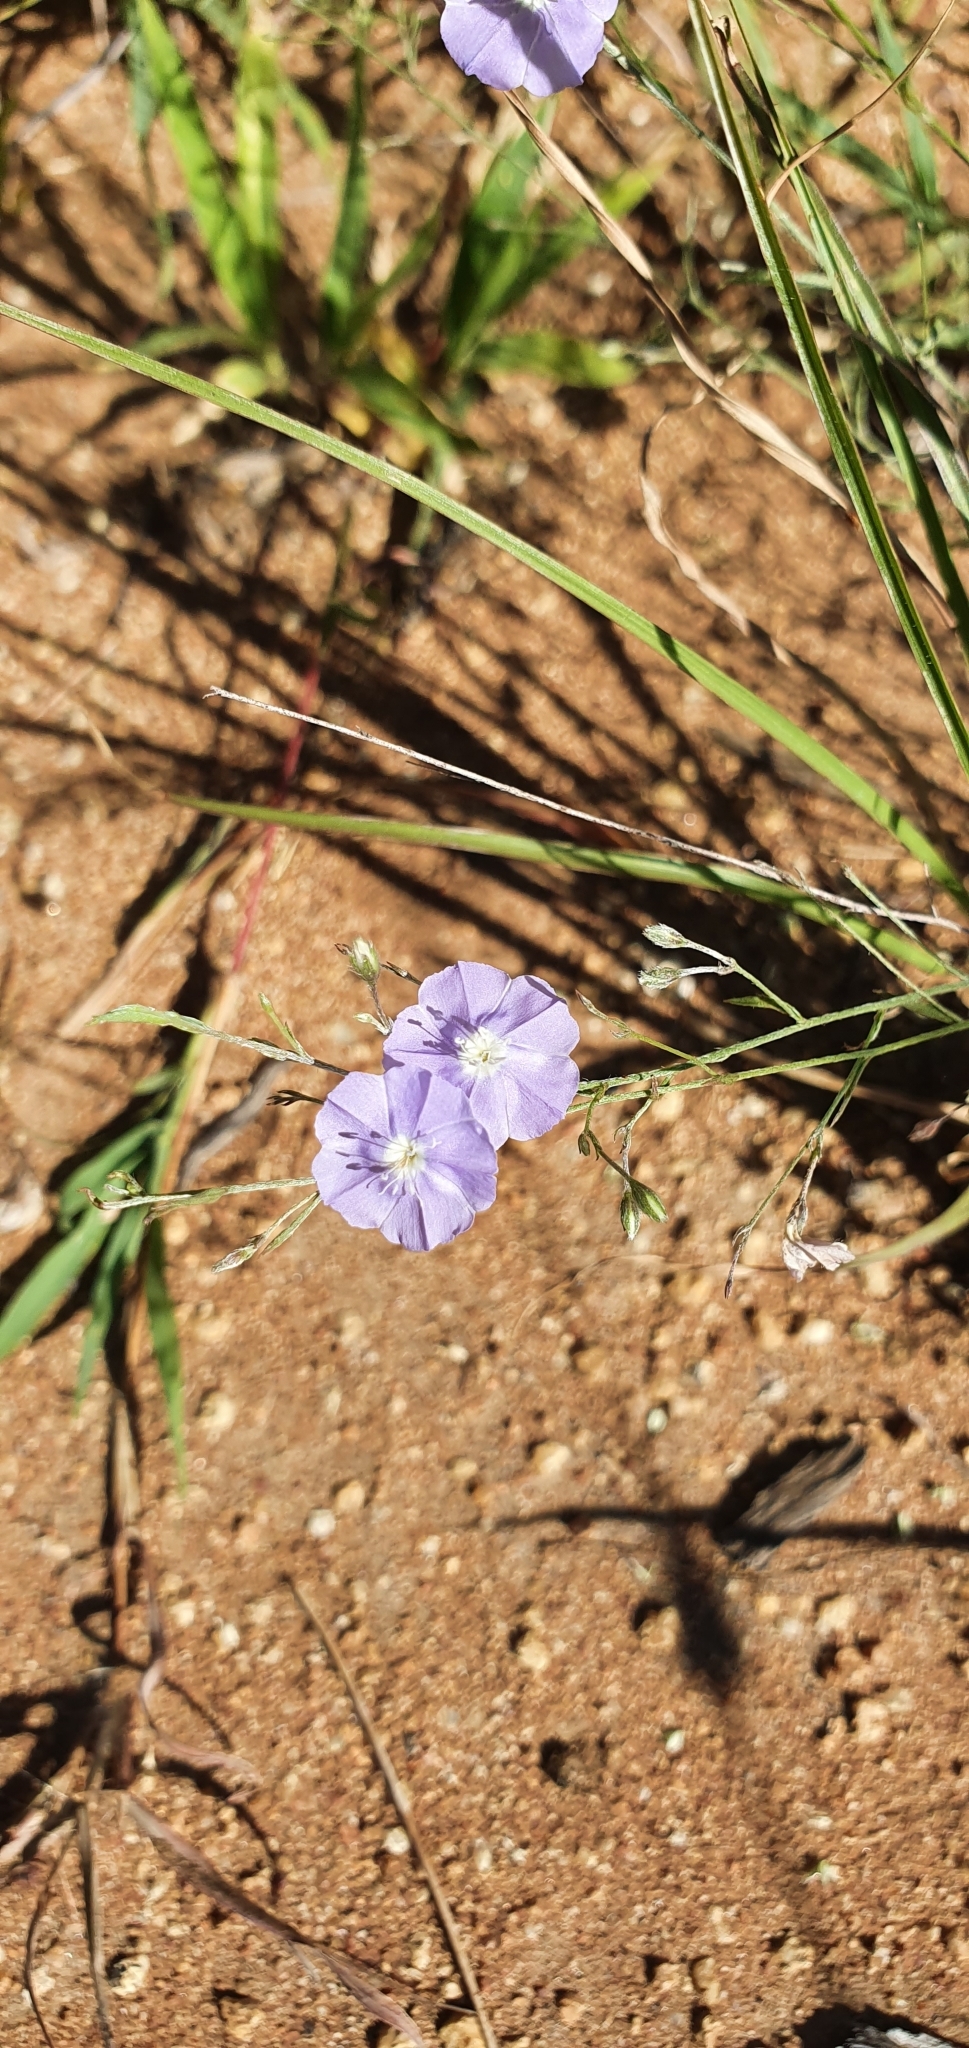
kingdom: Plantae
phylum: Tracheophyta
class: Magnoliopsida
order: Solanales
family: Convolvulaceae
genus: Evolvulus
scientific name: Evolvulus alsinoides
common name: Slender dwarf morning-glory
